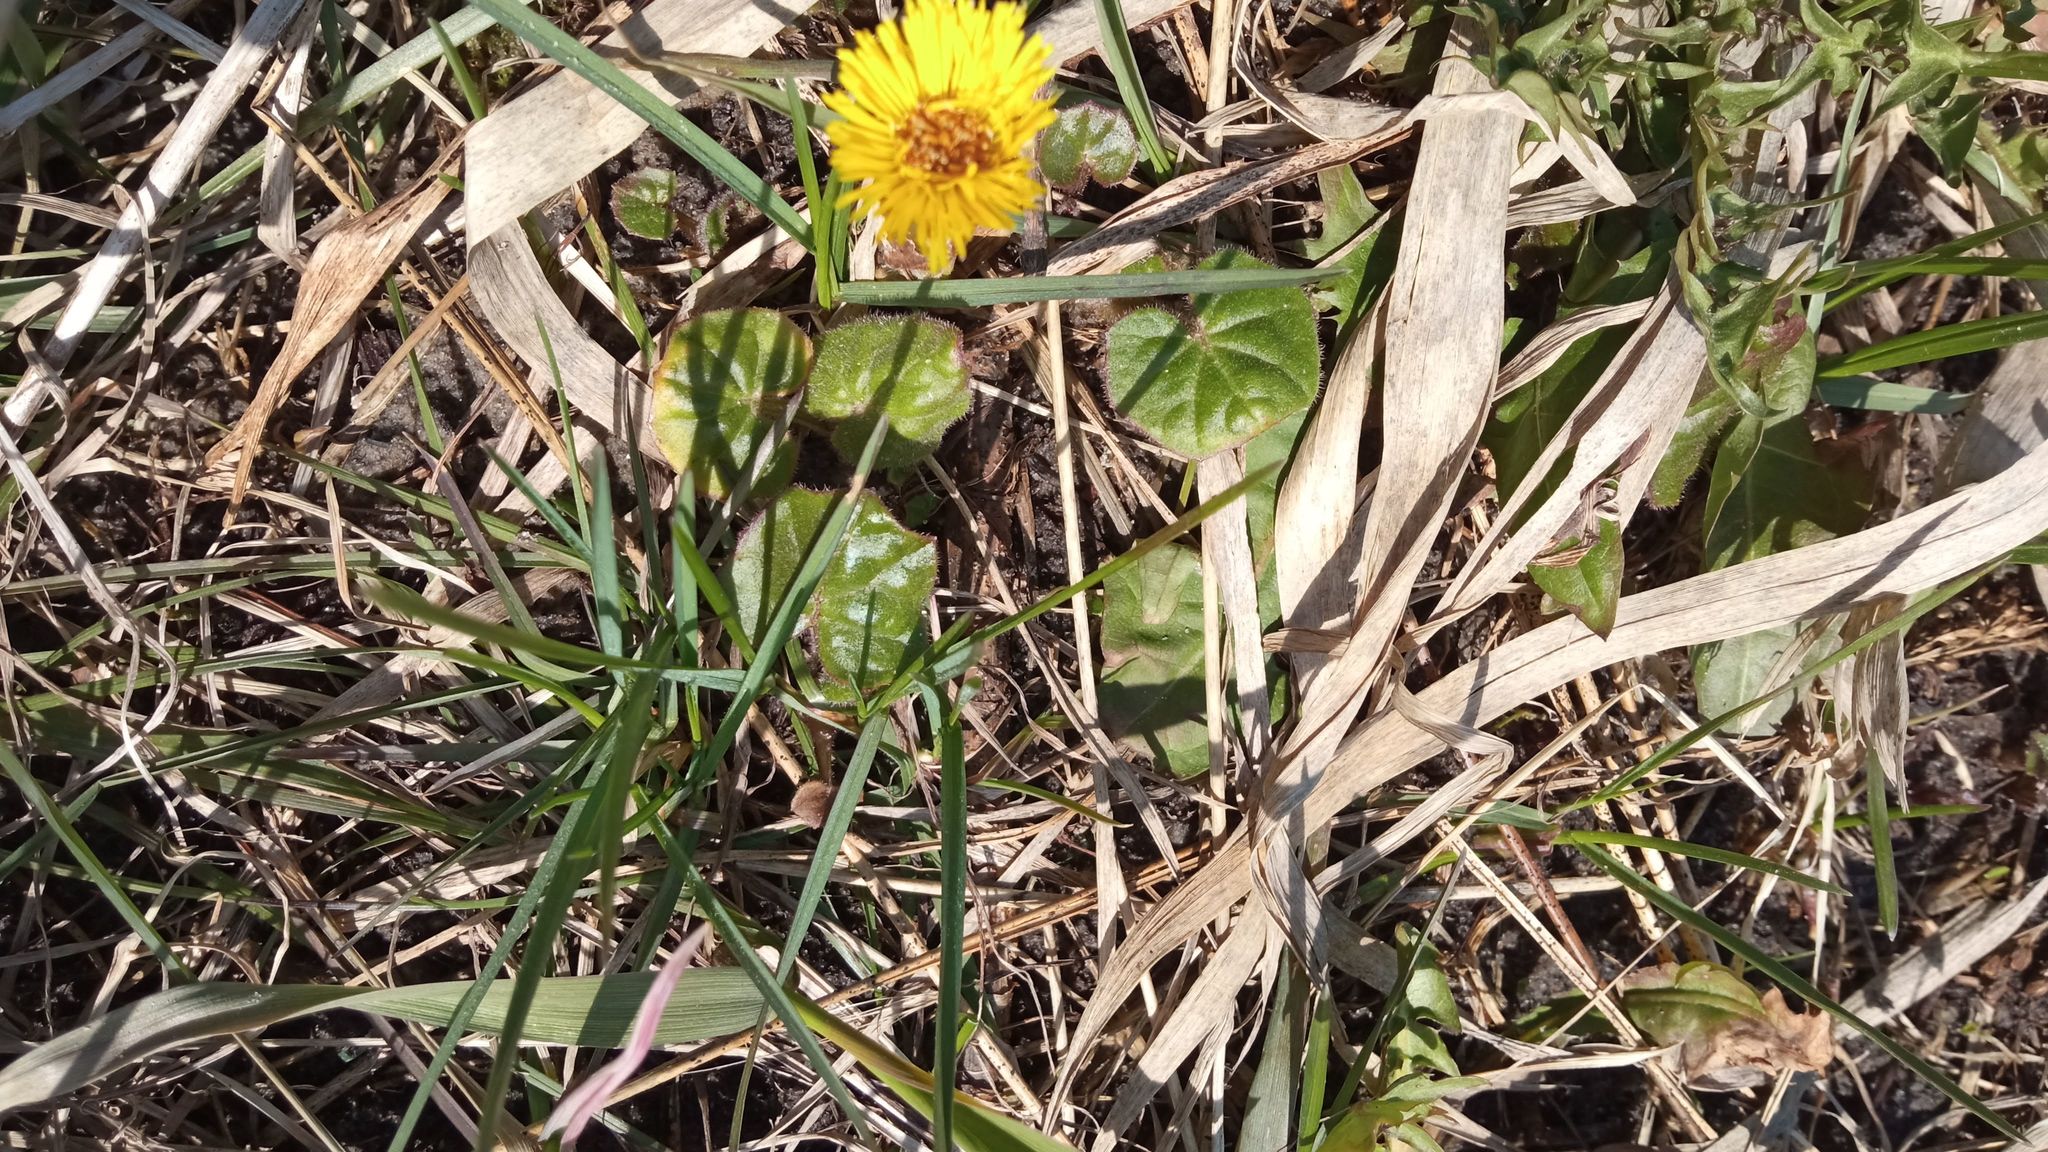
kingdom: Plantae
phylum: Tracheophyta
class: Magnoliopsida
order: Asterales
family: Asteraceae
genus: Tussilago
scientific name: Tussilago farfara
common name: Coltsfoot
